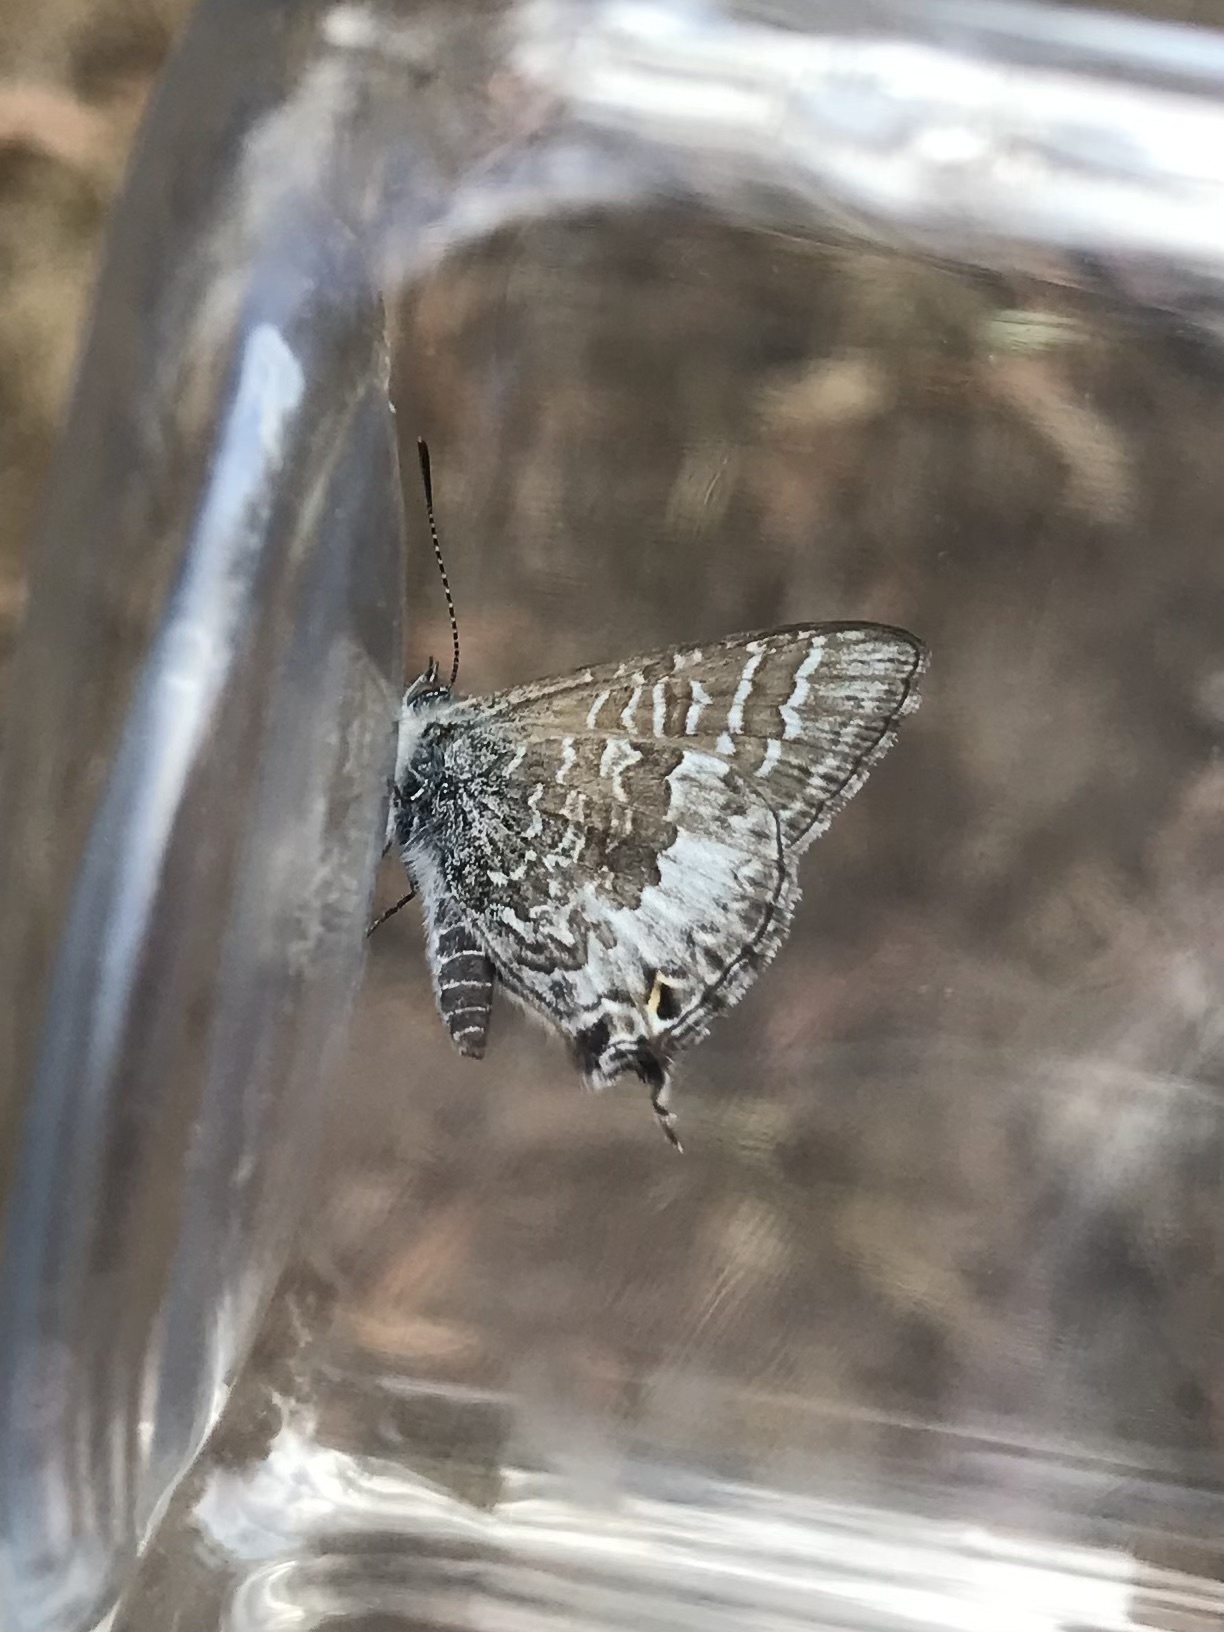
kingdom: Animalia
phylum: Arthropoda
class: Insecta
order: Lepidoptera
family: Lycaenidae
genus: Theclinesthes
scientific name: Theclinesthes miskini
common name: Wattle blue
